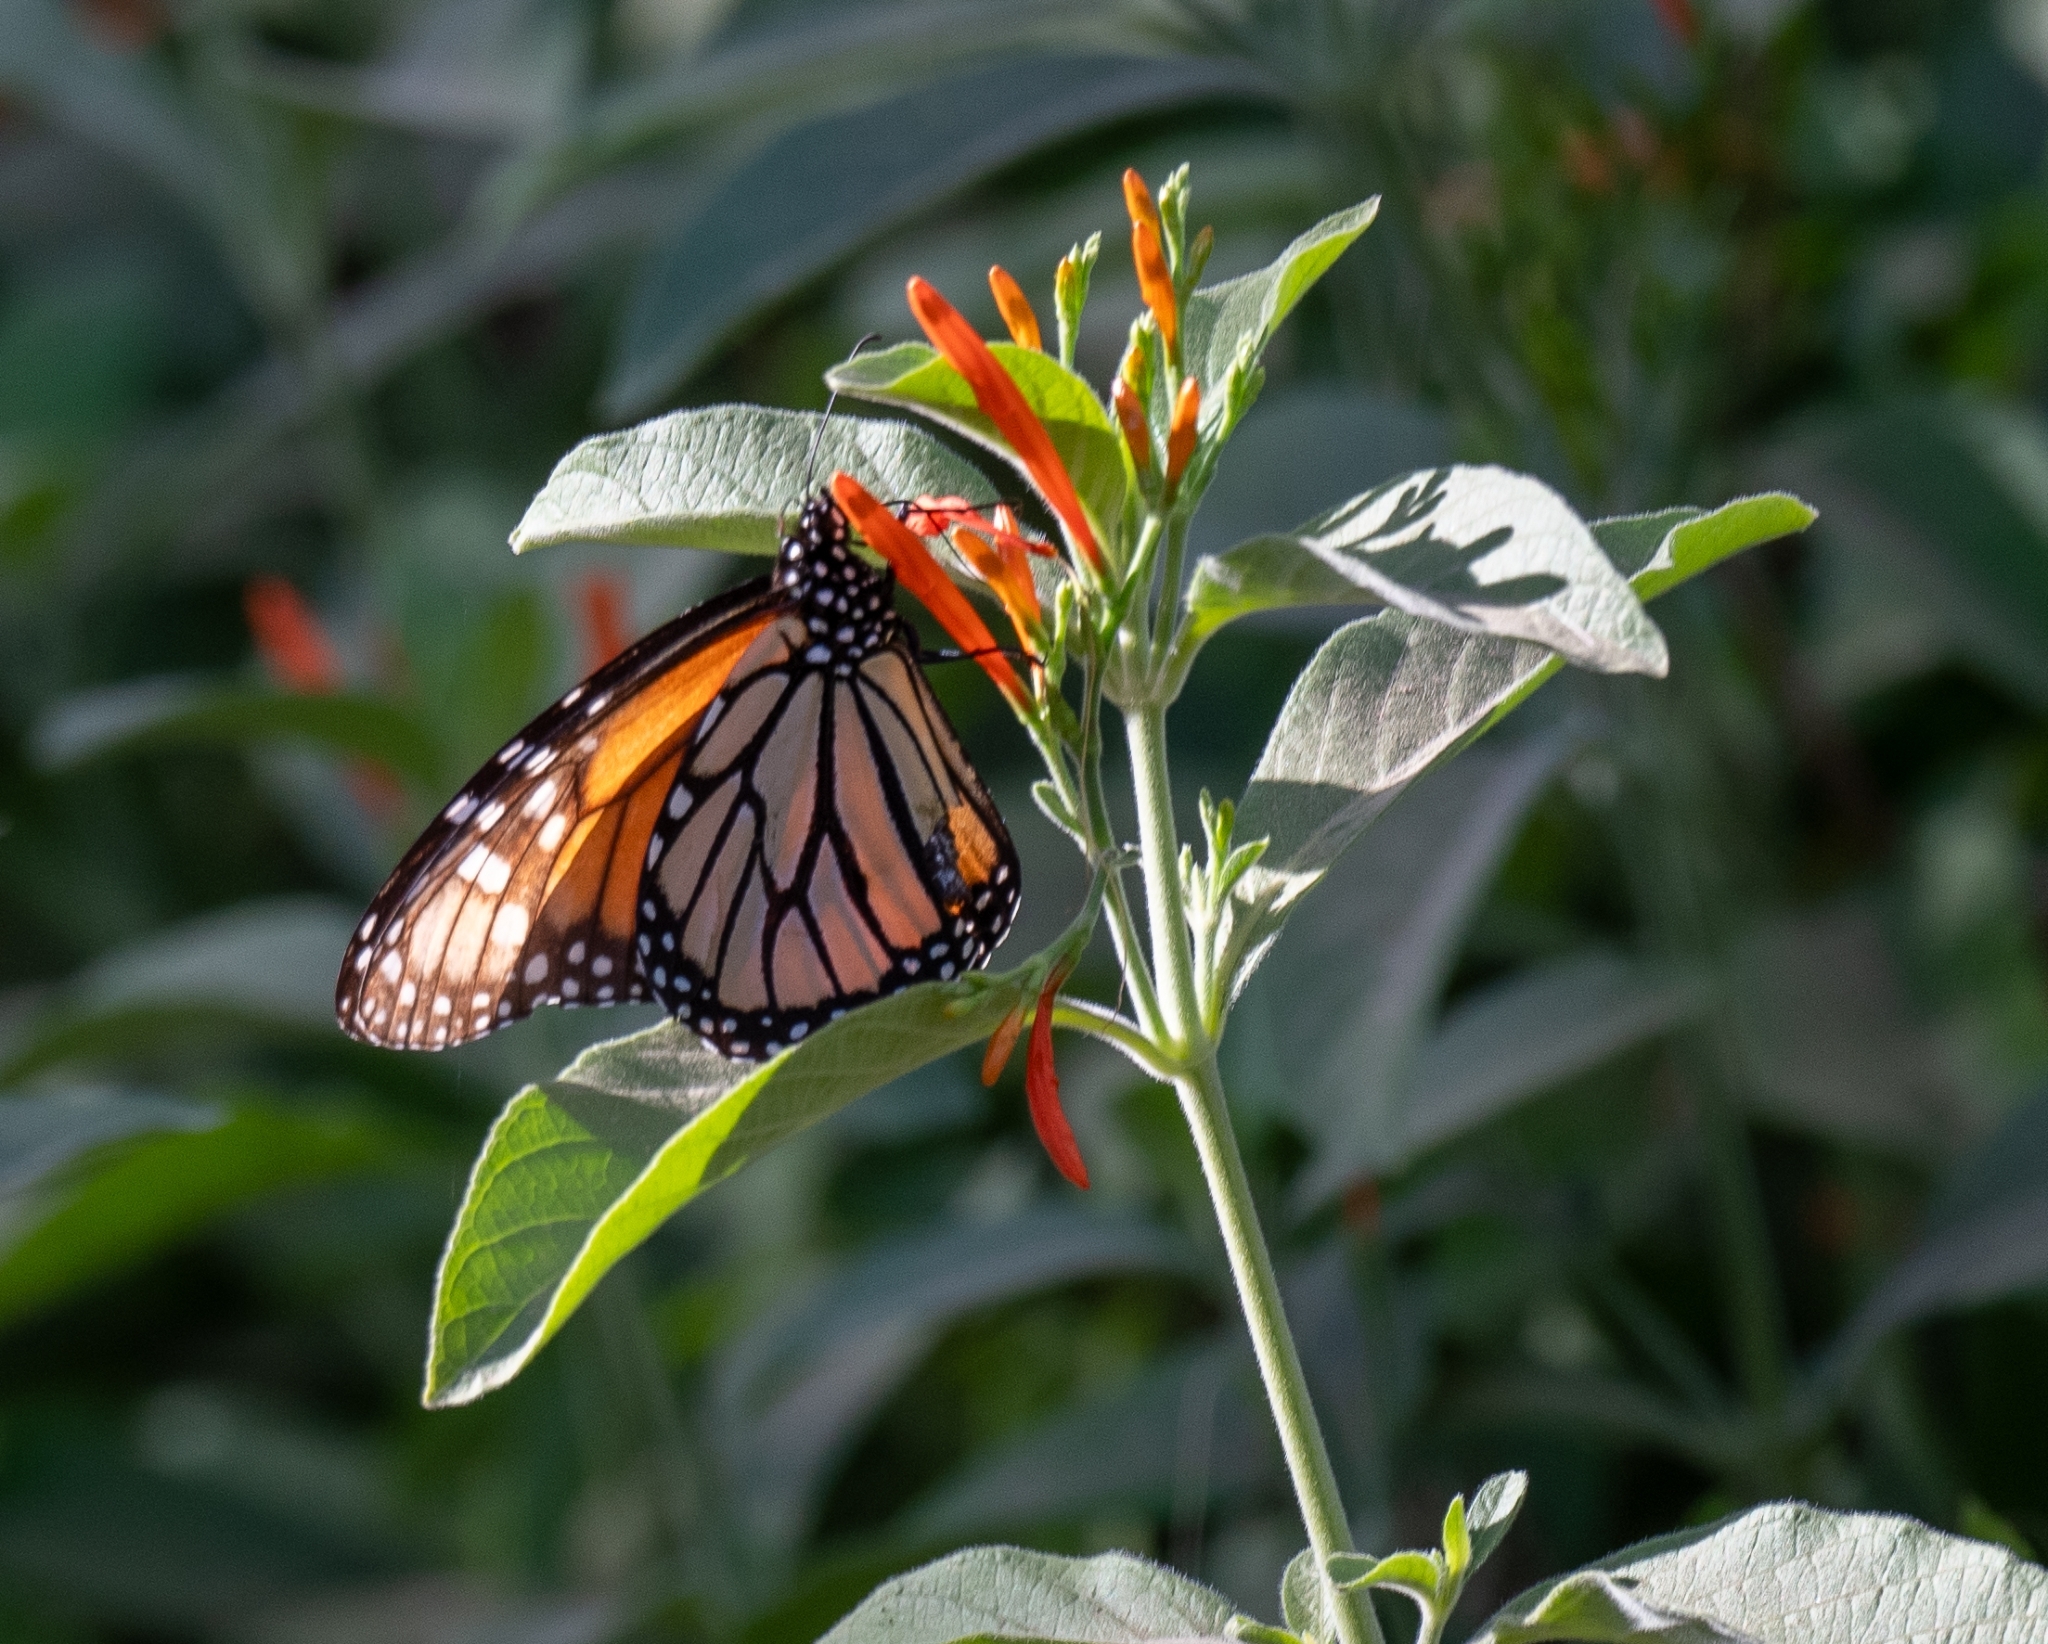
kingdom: Animalia
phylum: Arthropoda
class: Insecta
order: Lepidoptera
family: Nymphalidae
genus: Danaus
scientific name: Danaus plexippus
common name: Monarch
